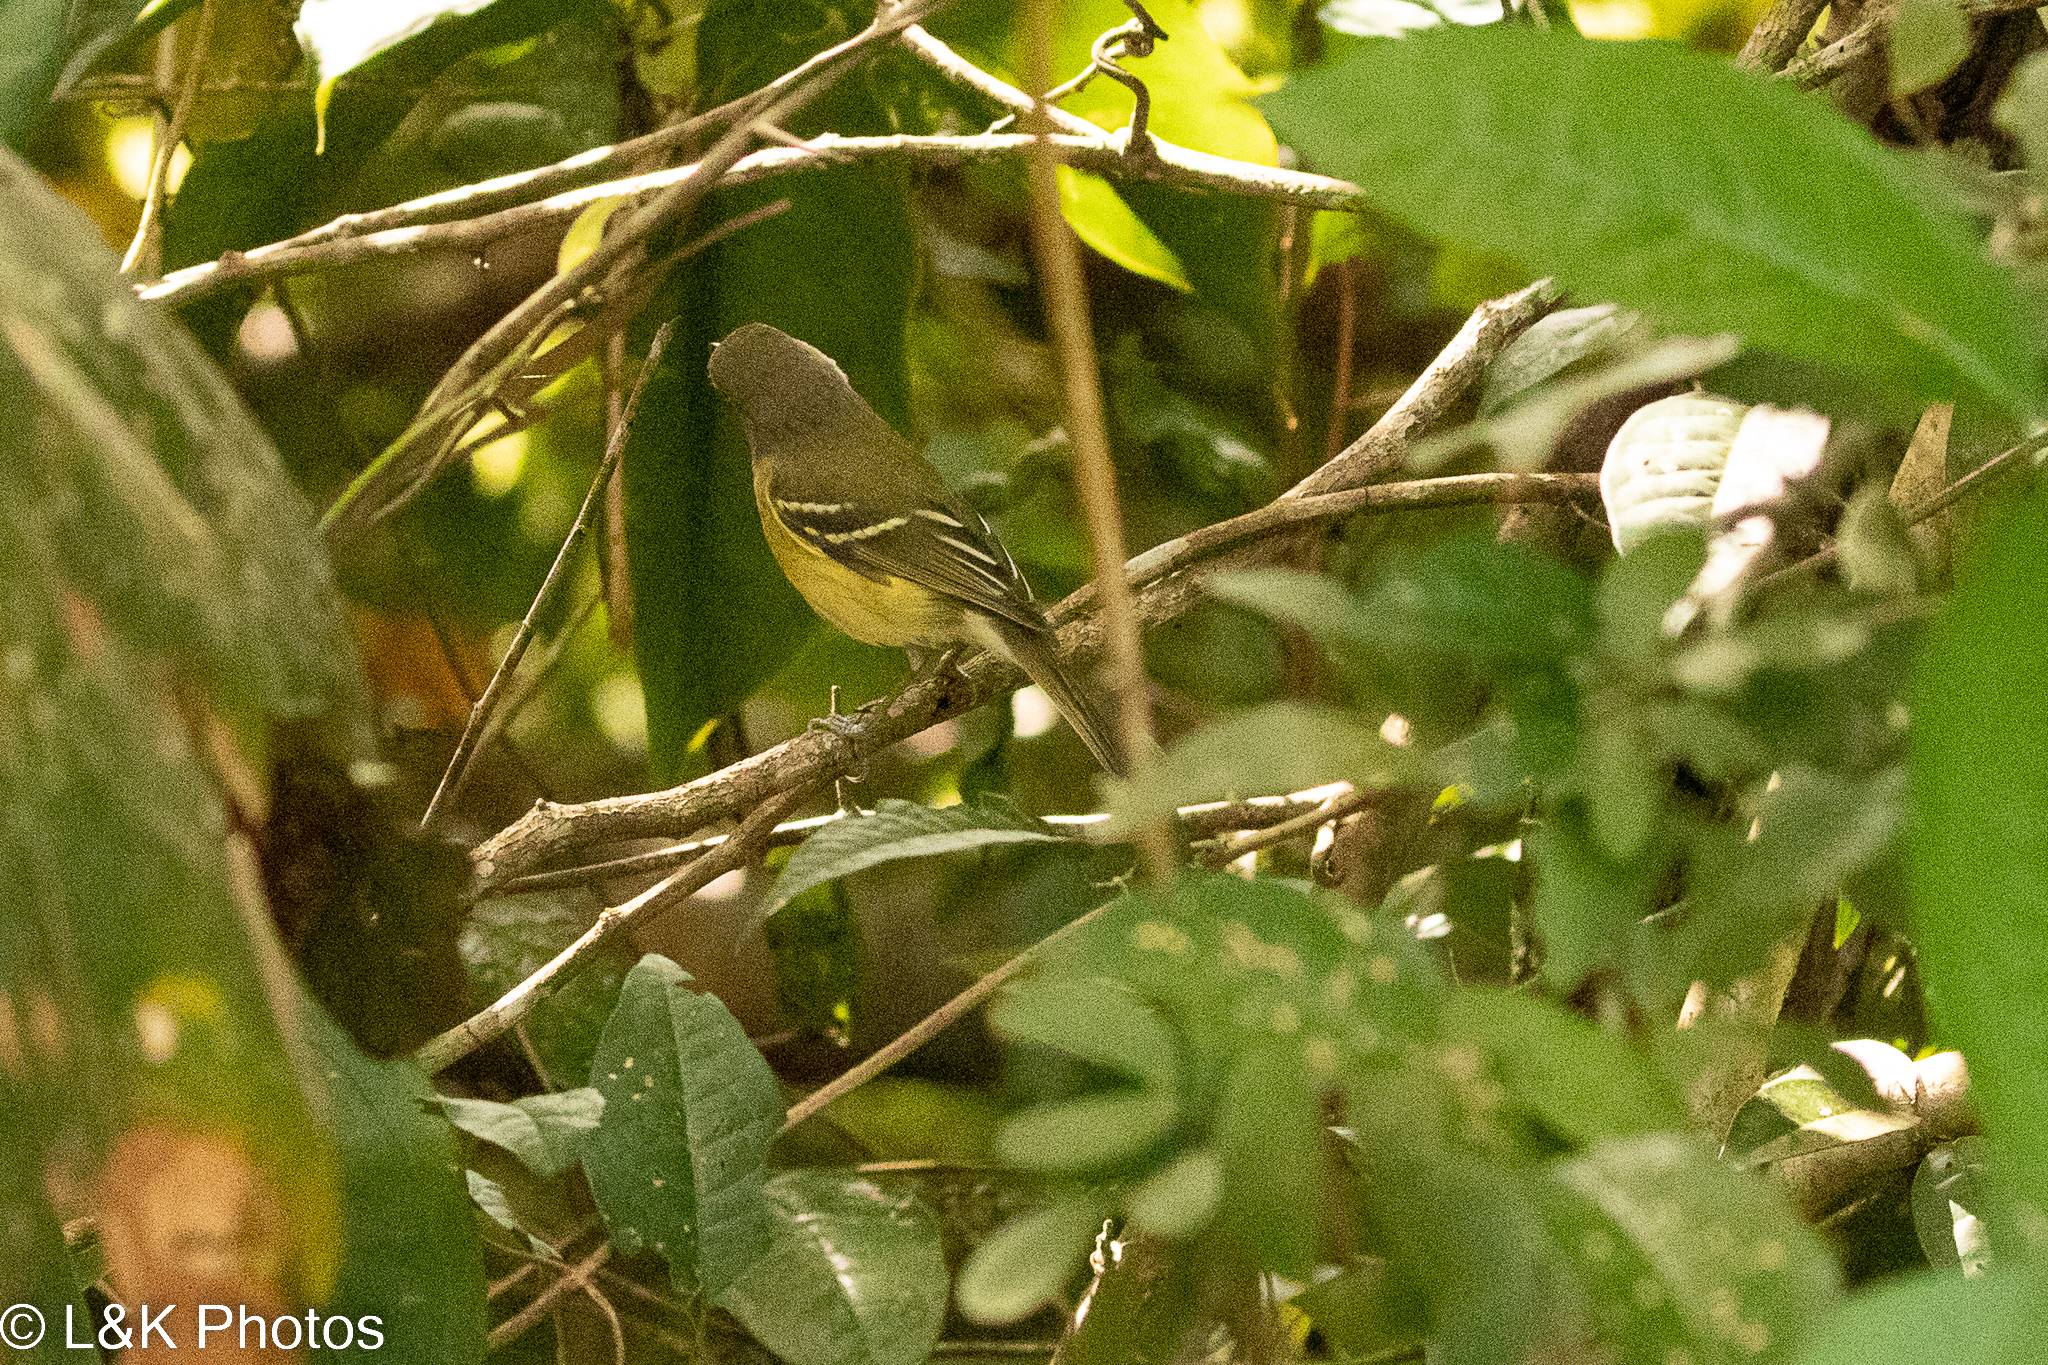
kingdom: Animalia
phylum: Chordata
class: Aves
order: Passeriformes
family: Vireonidae
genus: Vireo
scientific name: Vireo griseus
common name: White-eyed vireo
